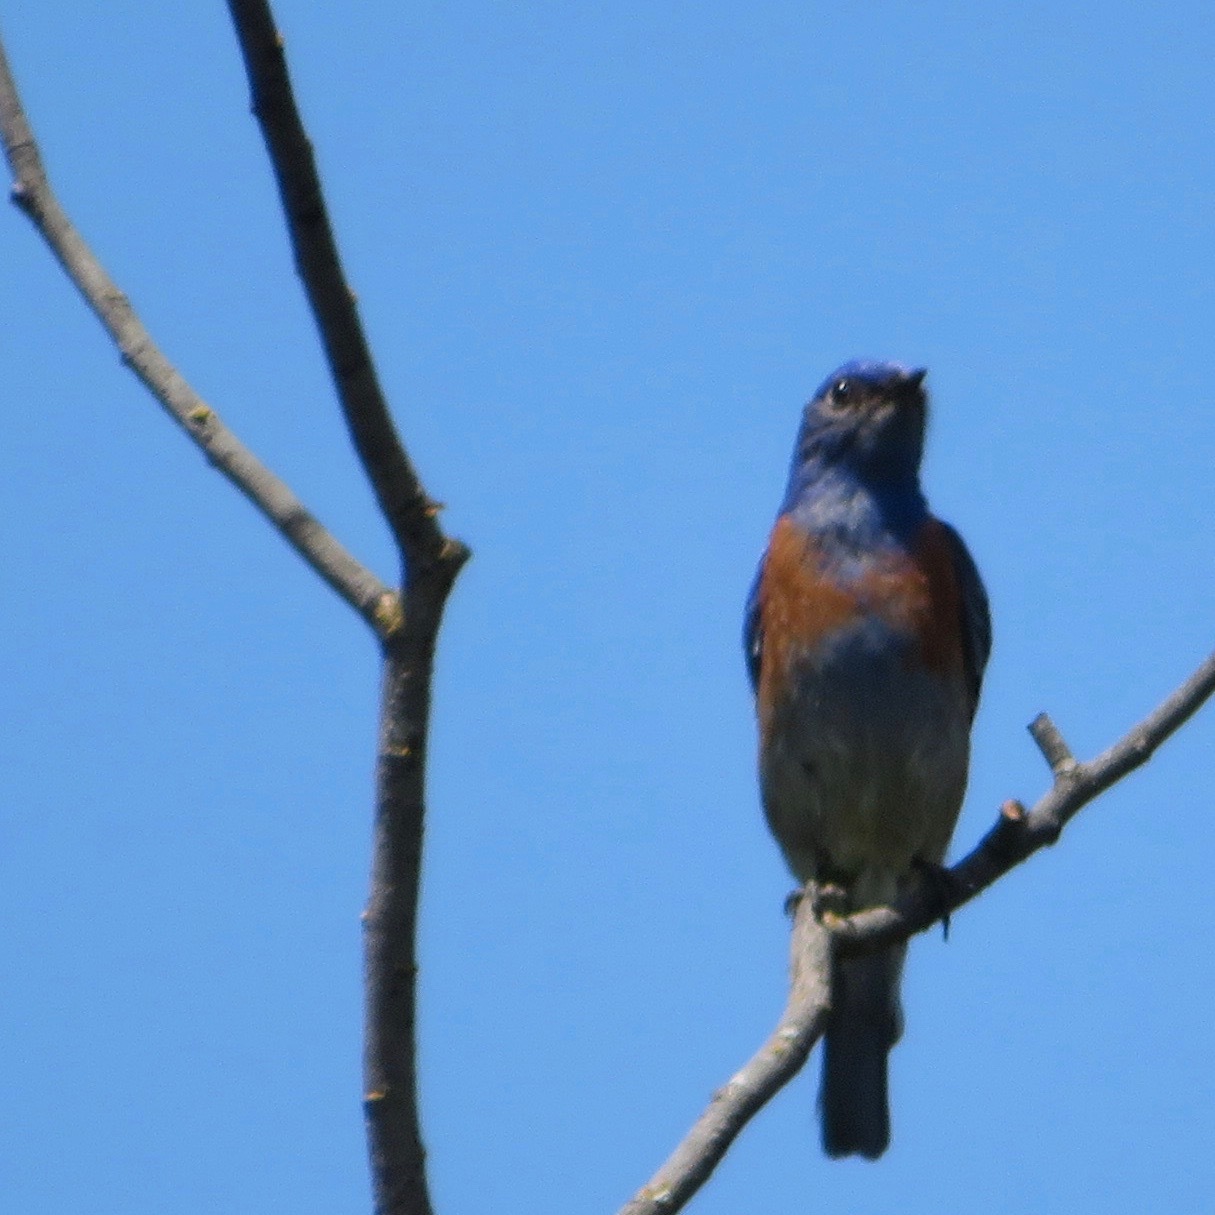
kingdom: Animalia
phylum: Chordata
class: Aves
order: Passeriformes
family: Turdidae
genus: Sialia
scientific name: Sialia mexicana
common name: Western bluebird
